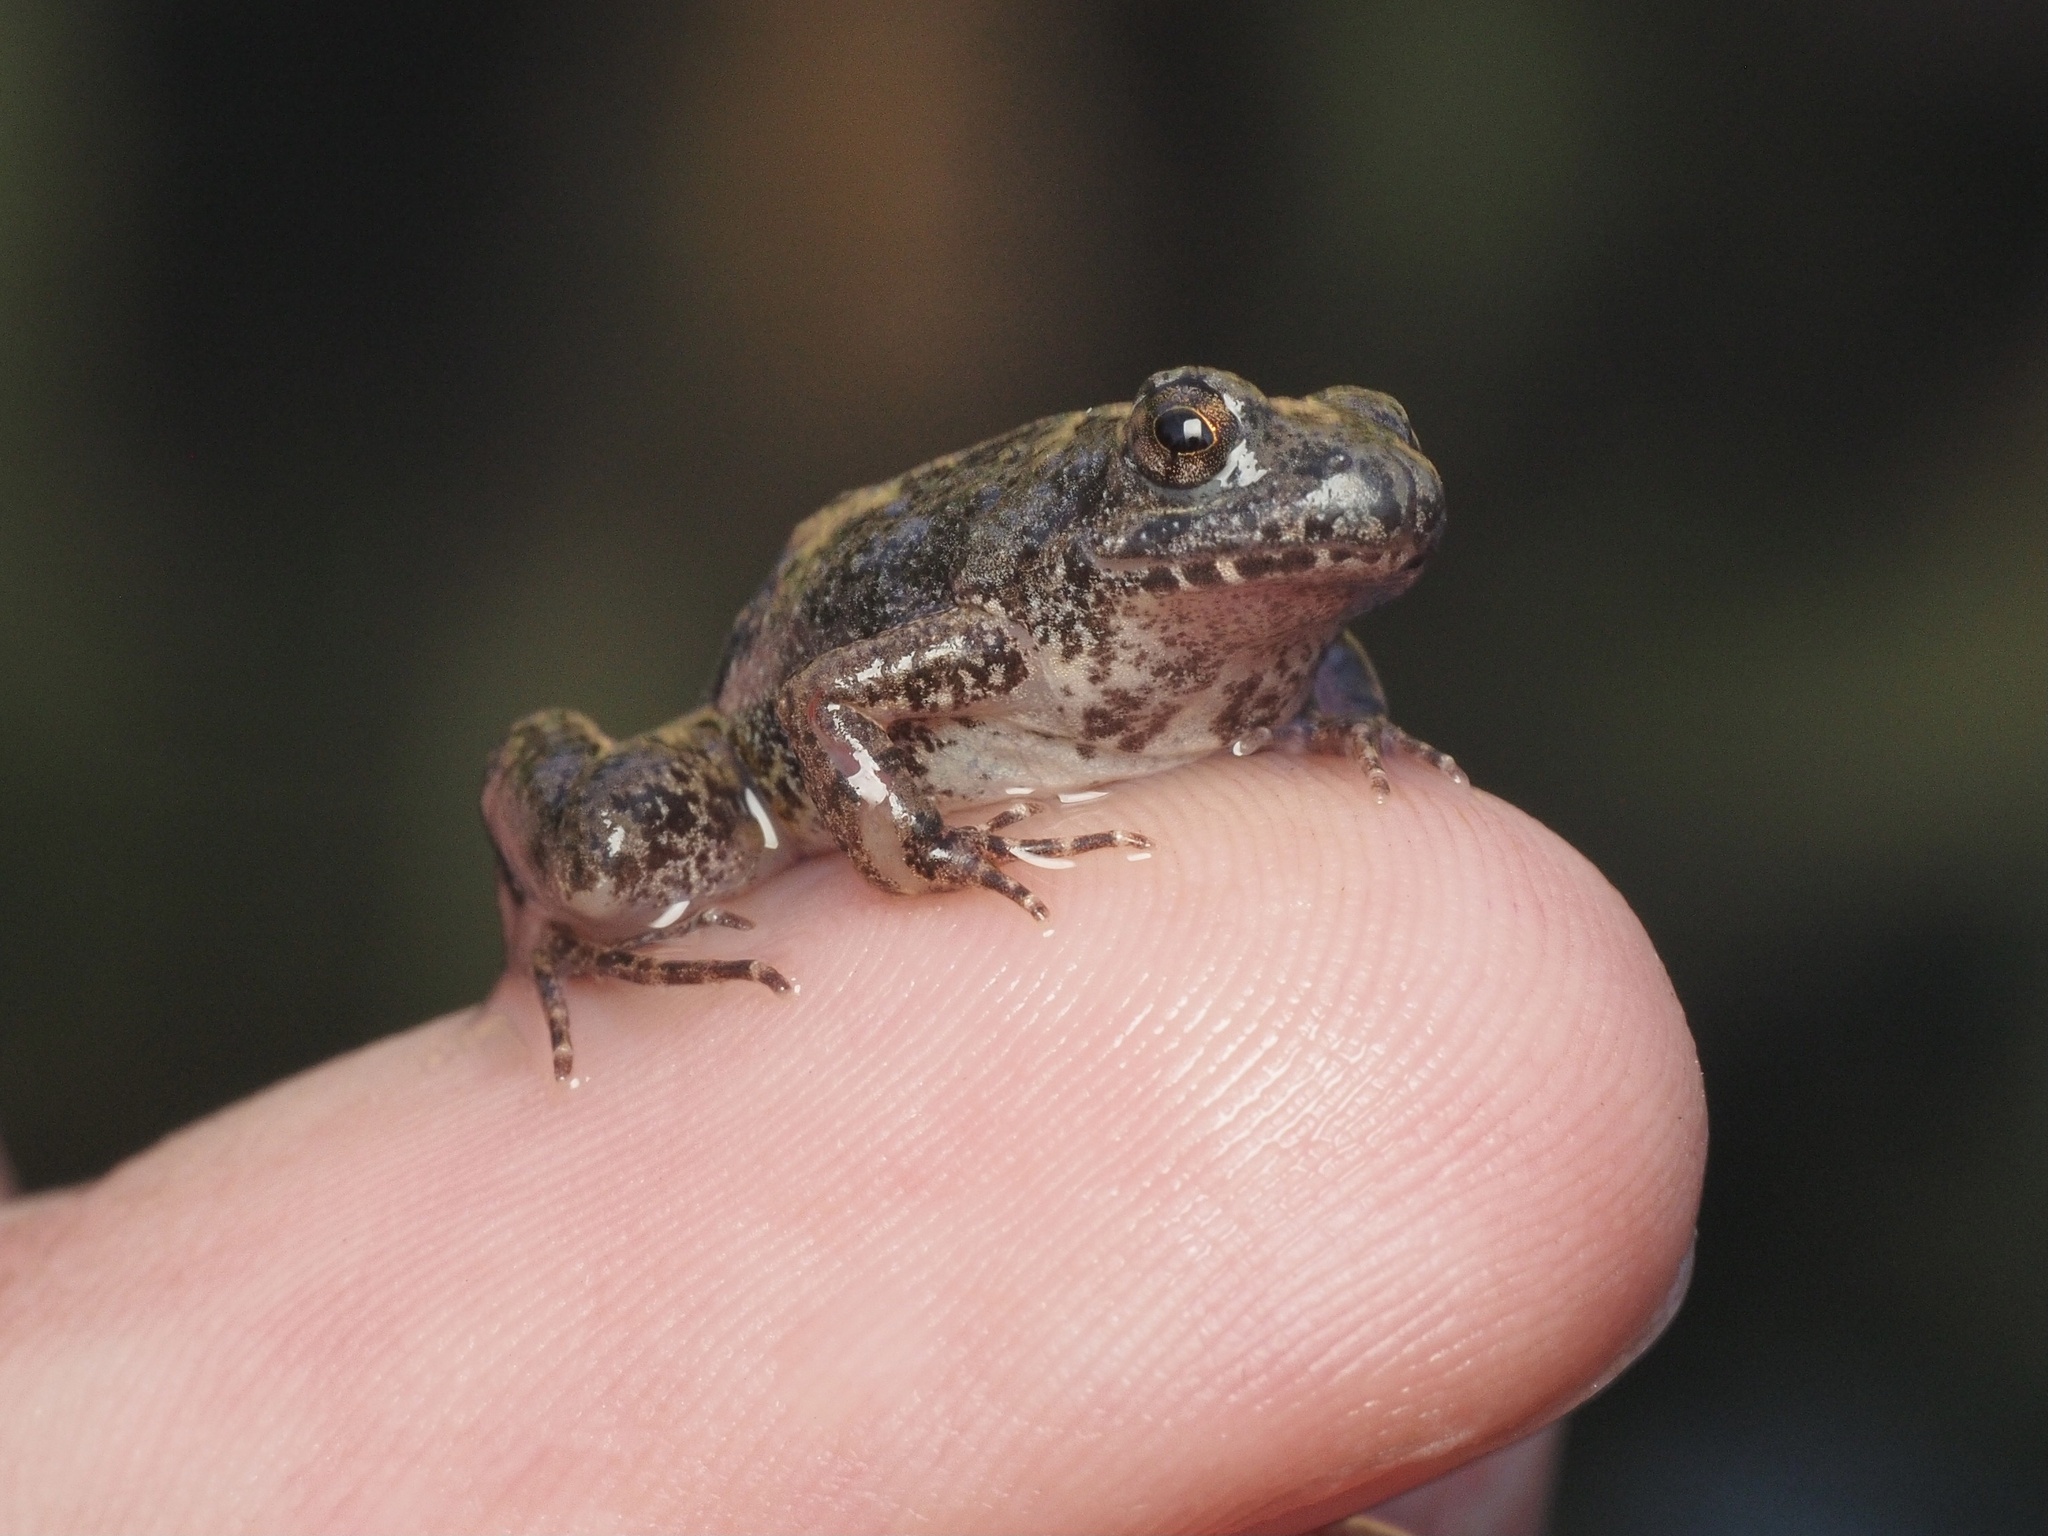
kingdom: Animalia
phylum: Chordata
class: Amphibia
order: Anura
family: Phrynobatrachidae
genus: Phrynobatrachus
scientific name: Phrynobatrachus mababiensis
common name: Dwarf puddle frog
